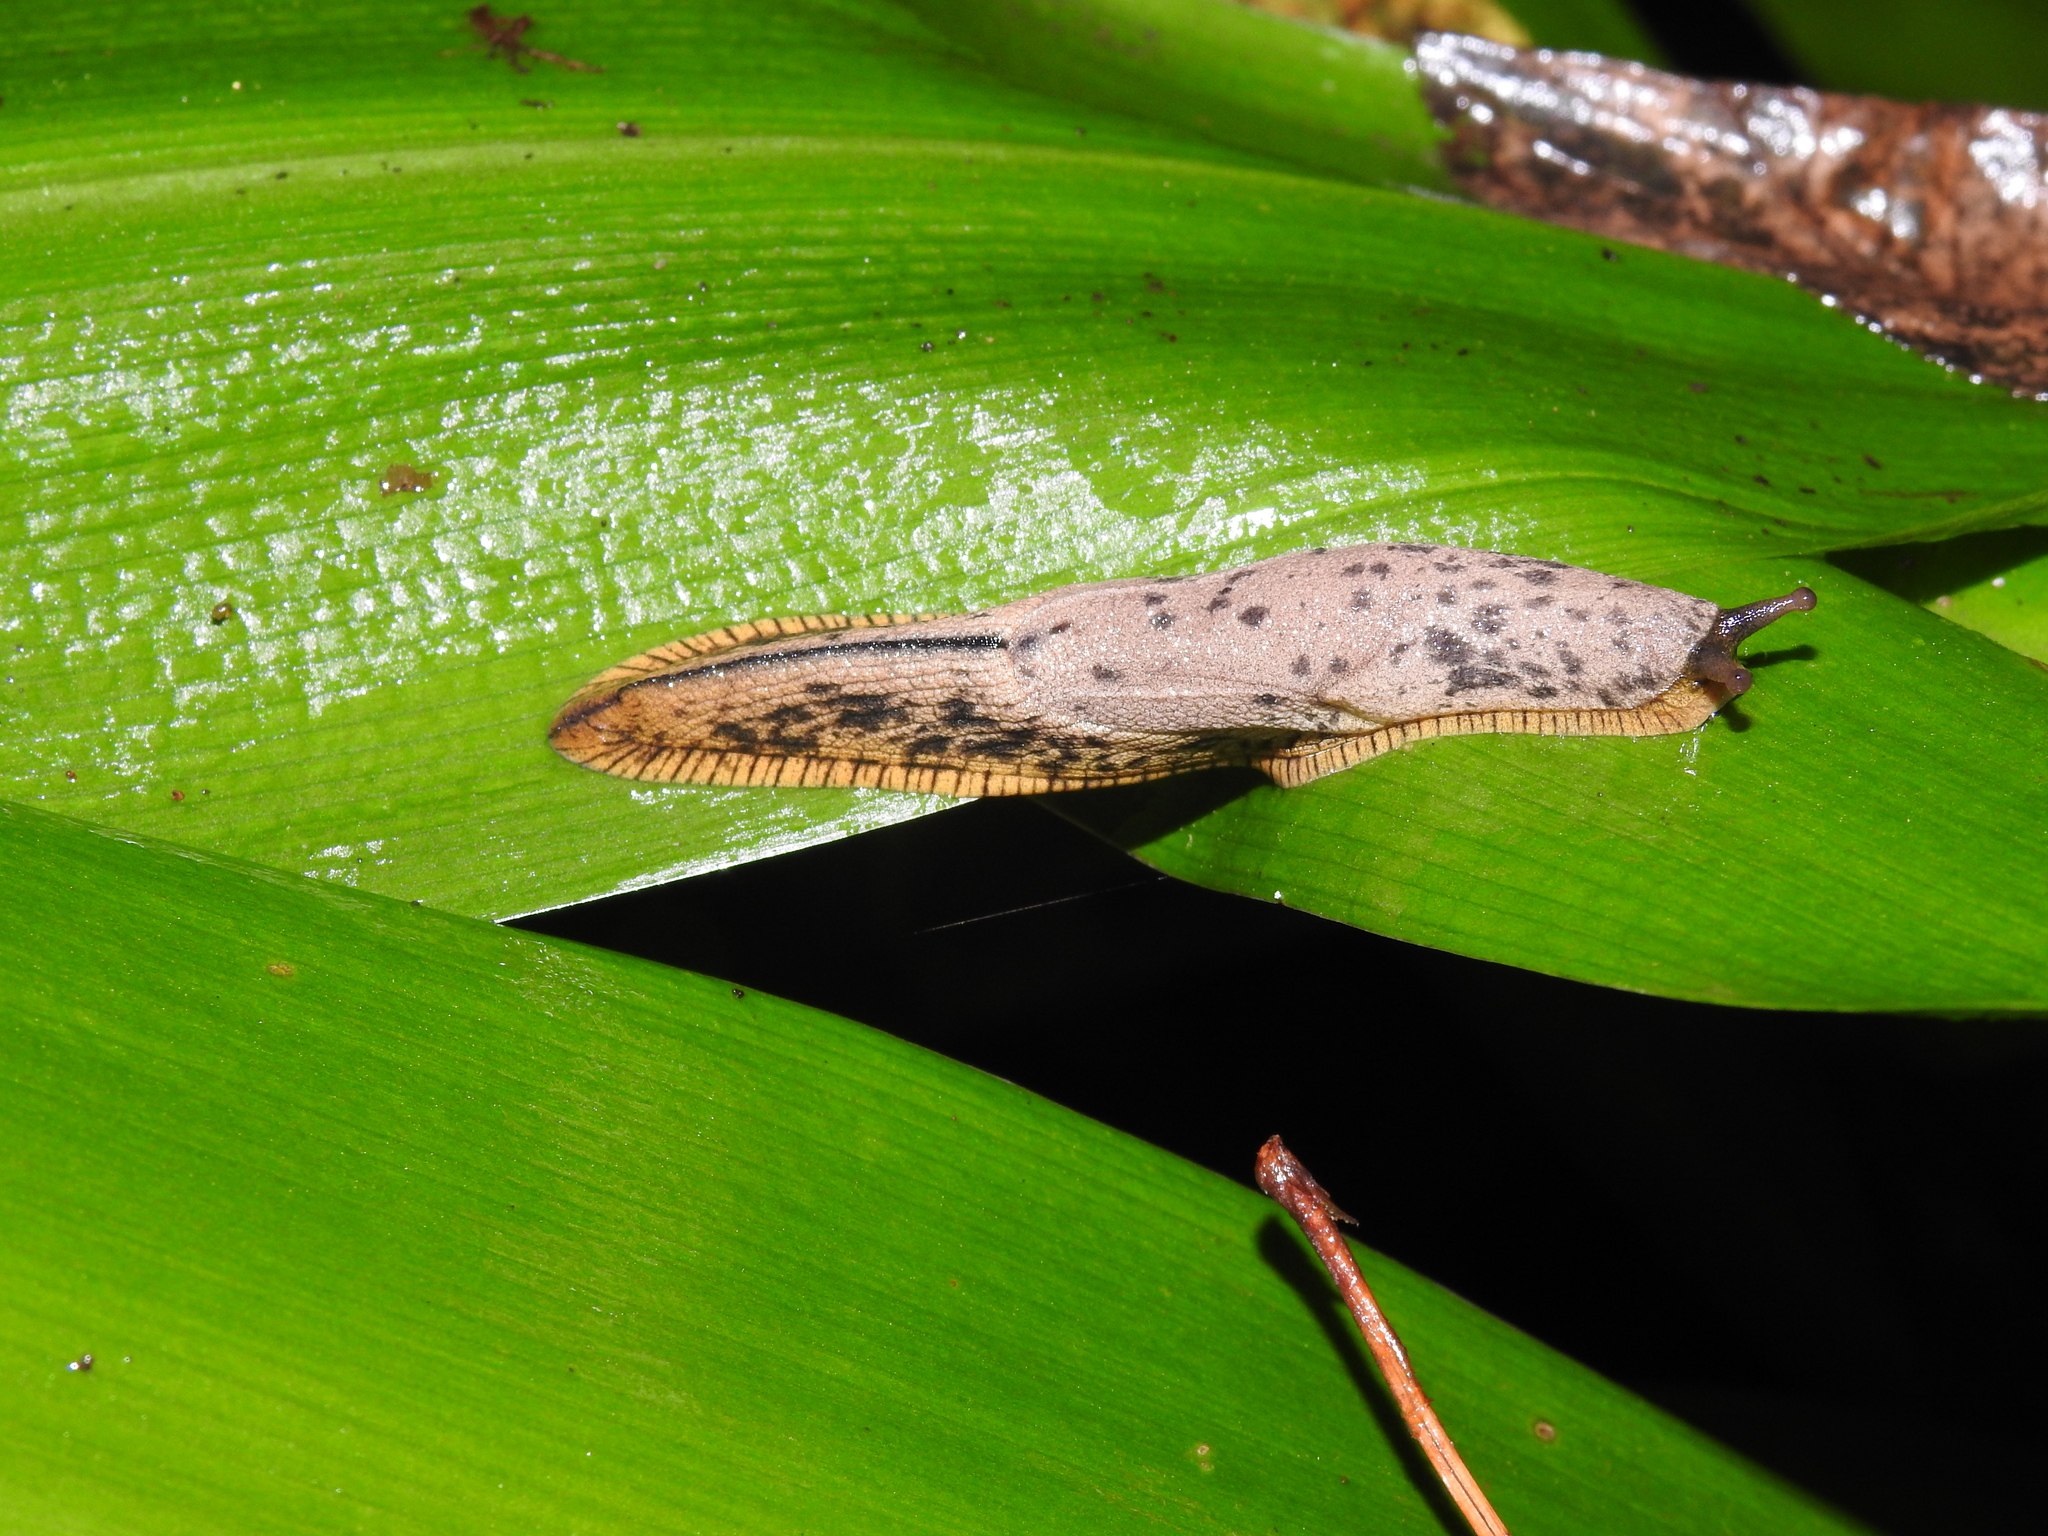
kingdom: Animalia
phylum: Mollusca
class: Gastropoda
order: Stylommatophora
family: Ariophantidae
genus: Mariaella
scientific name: Mariaella dussumieri
